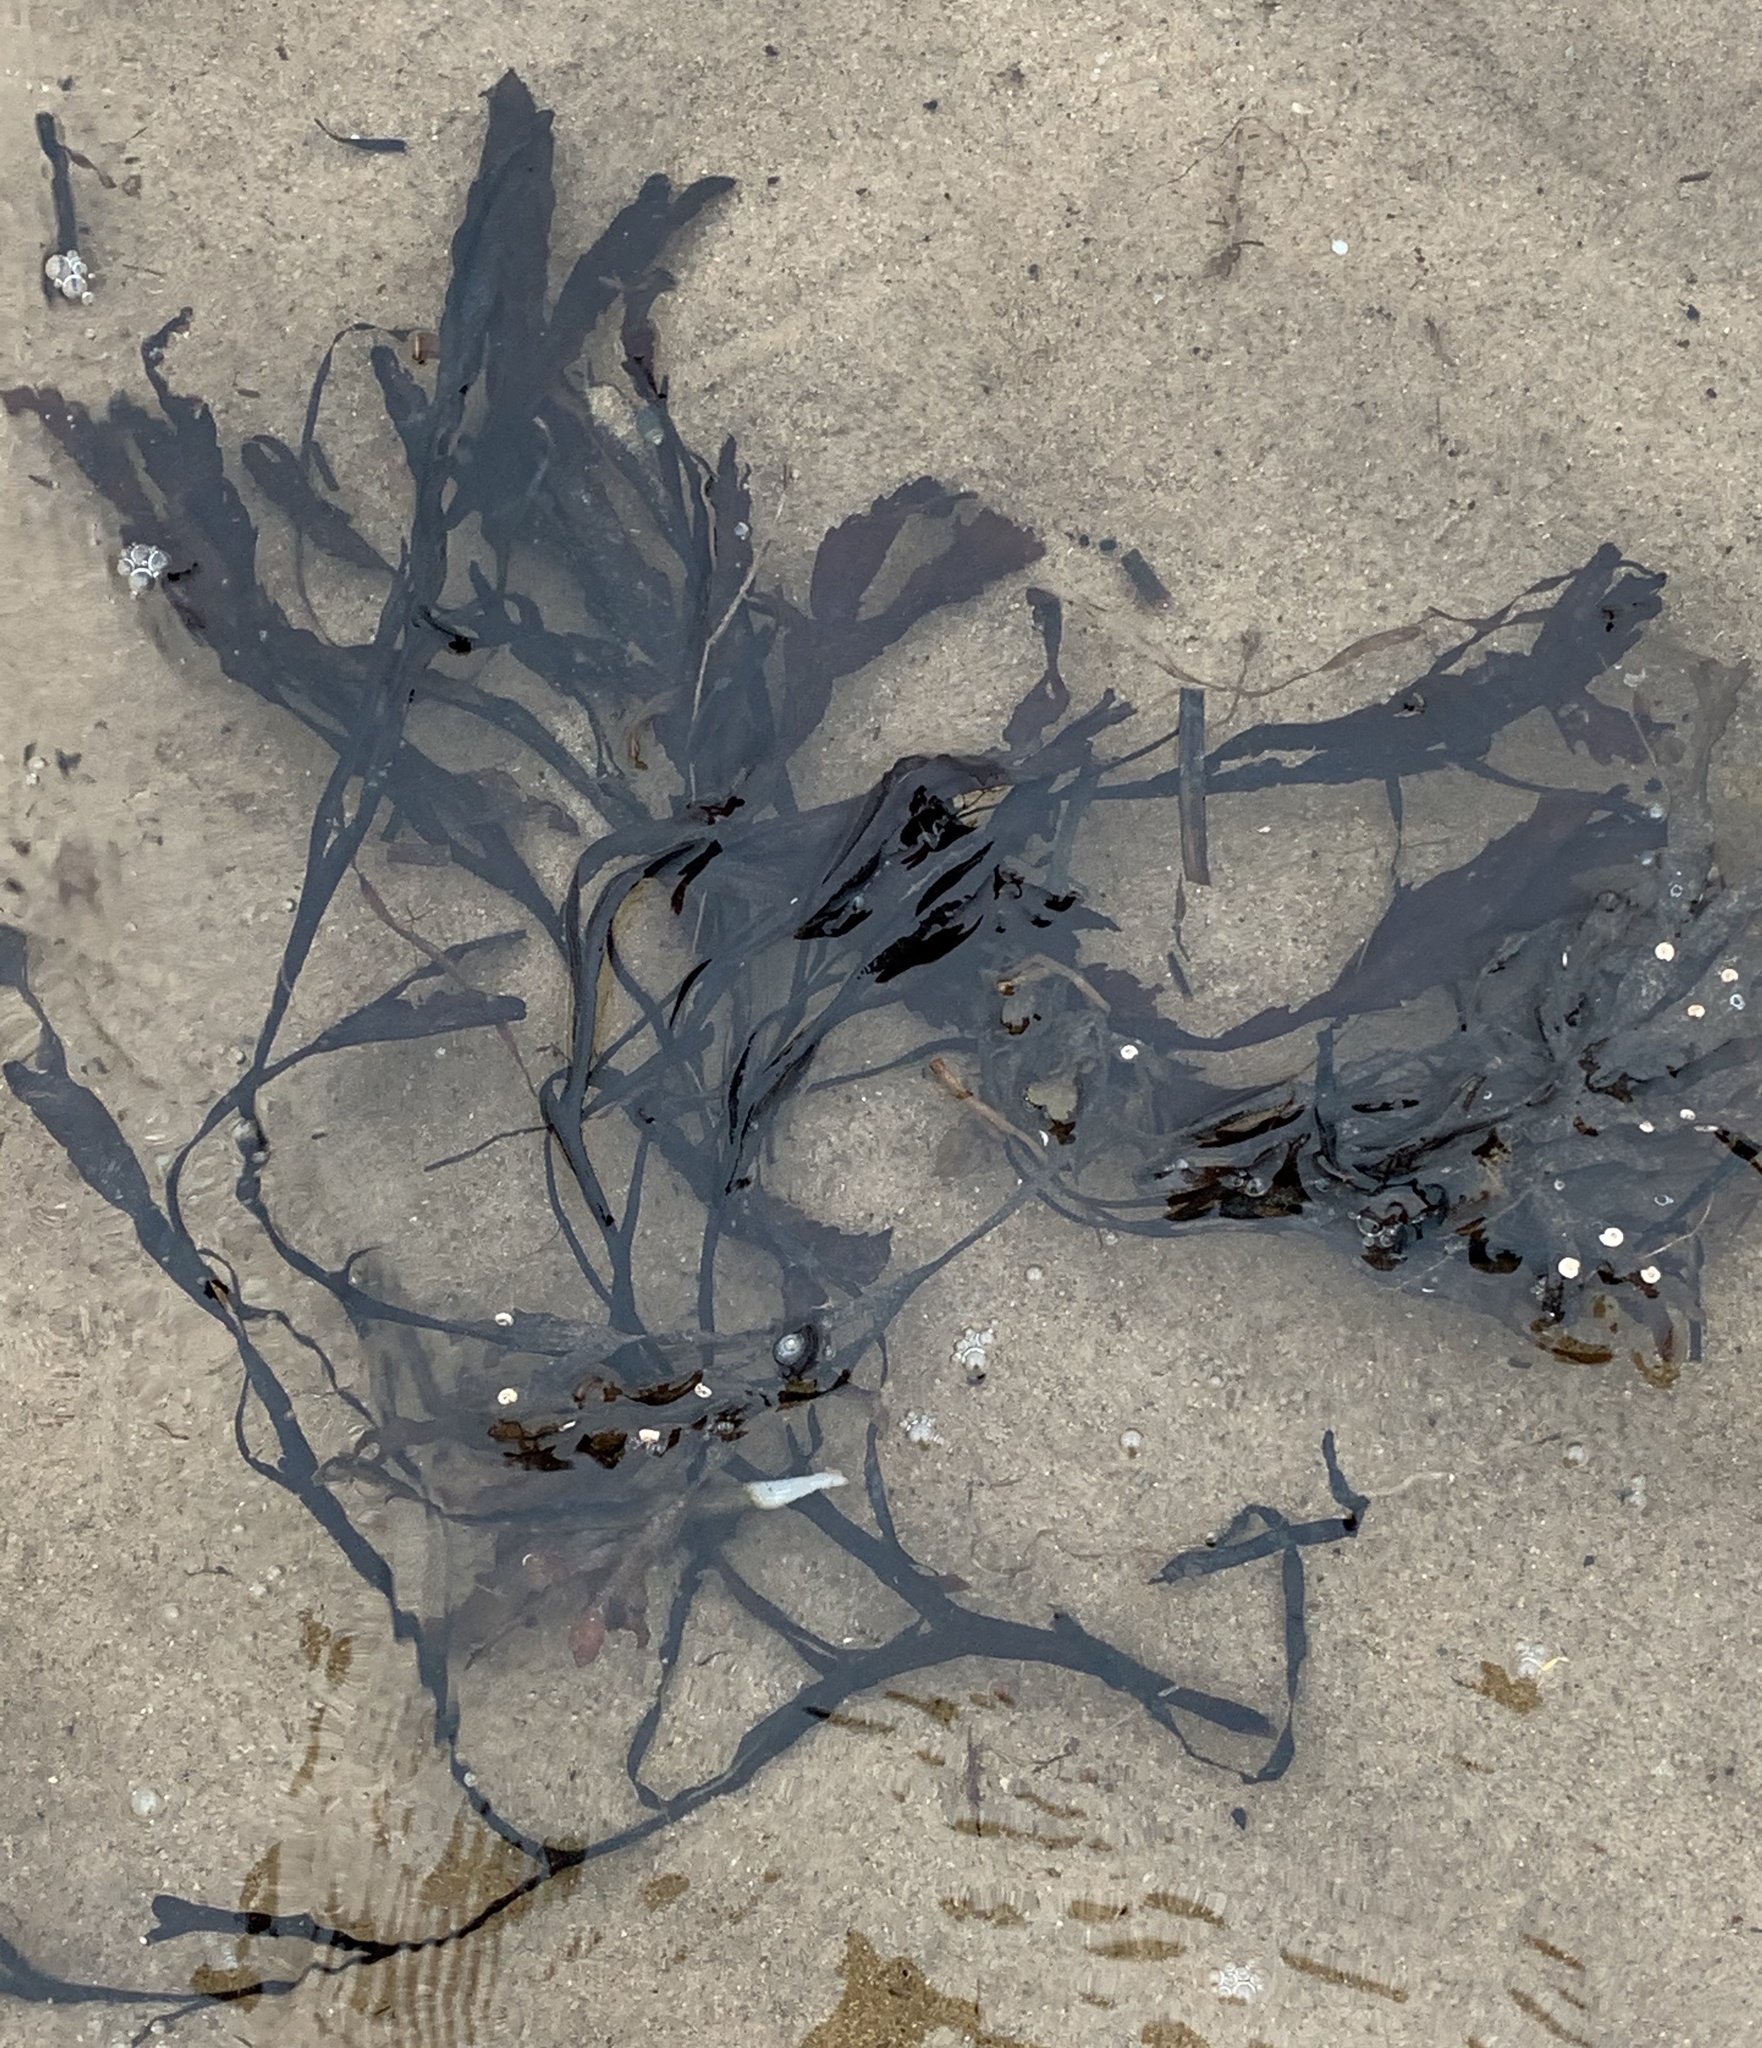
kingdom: Chromista
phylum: Ochrophyta
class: Phaeophyceae
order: Fucales
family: Fucaceae
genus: Fucus
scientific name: Fucus serratus
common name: Toothed wrack
